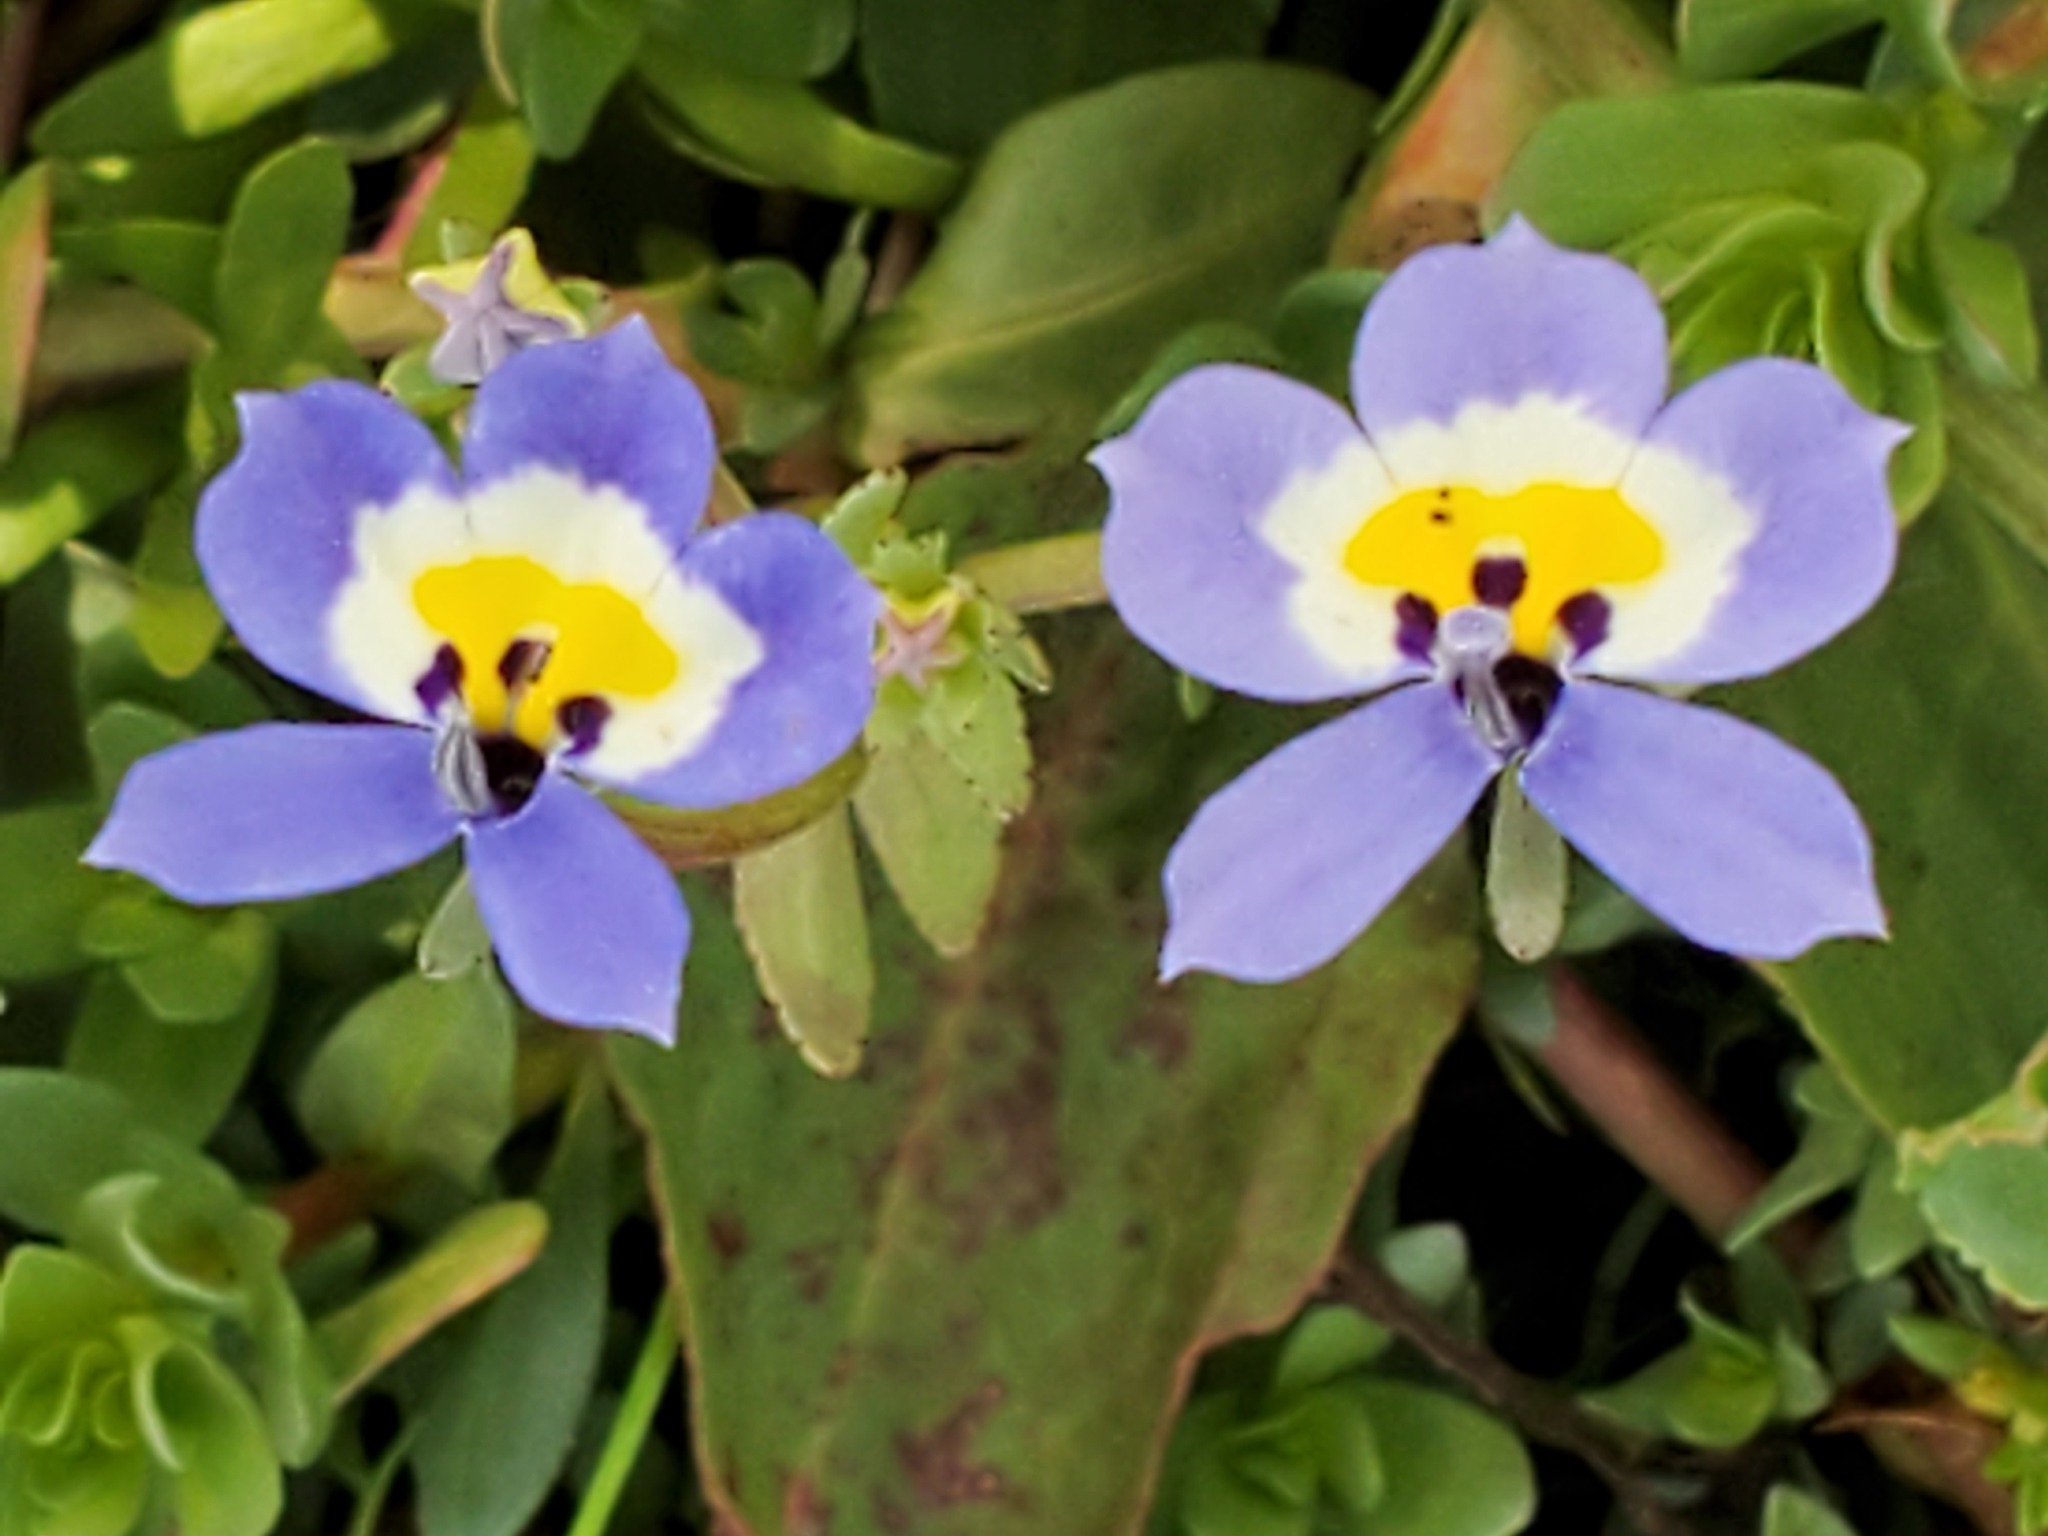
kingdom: Plantae
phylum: Tracheophyta
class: Magnoliopsida
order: Asterales
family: Campanulaceae
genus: Downingia
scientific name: Downingia pulchella
